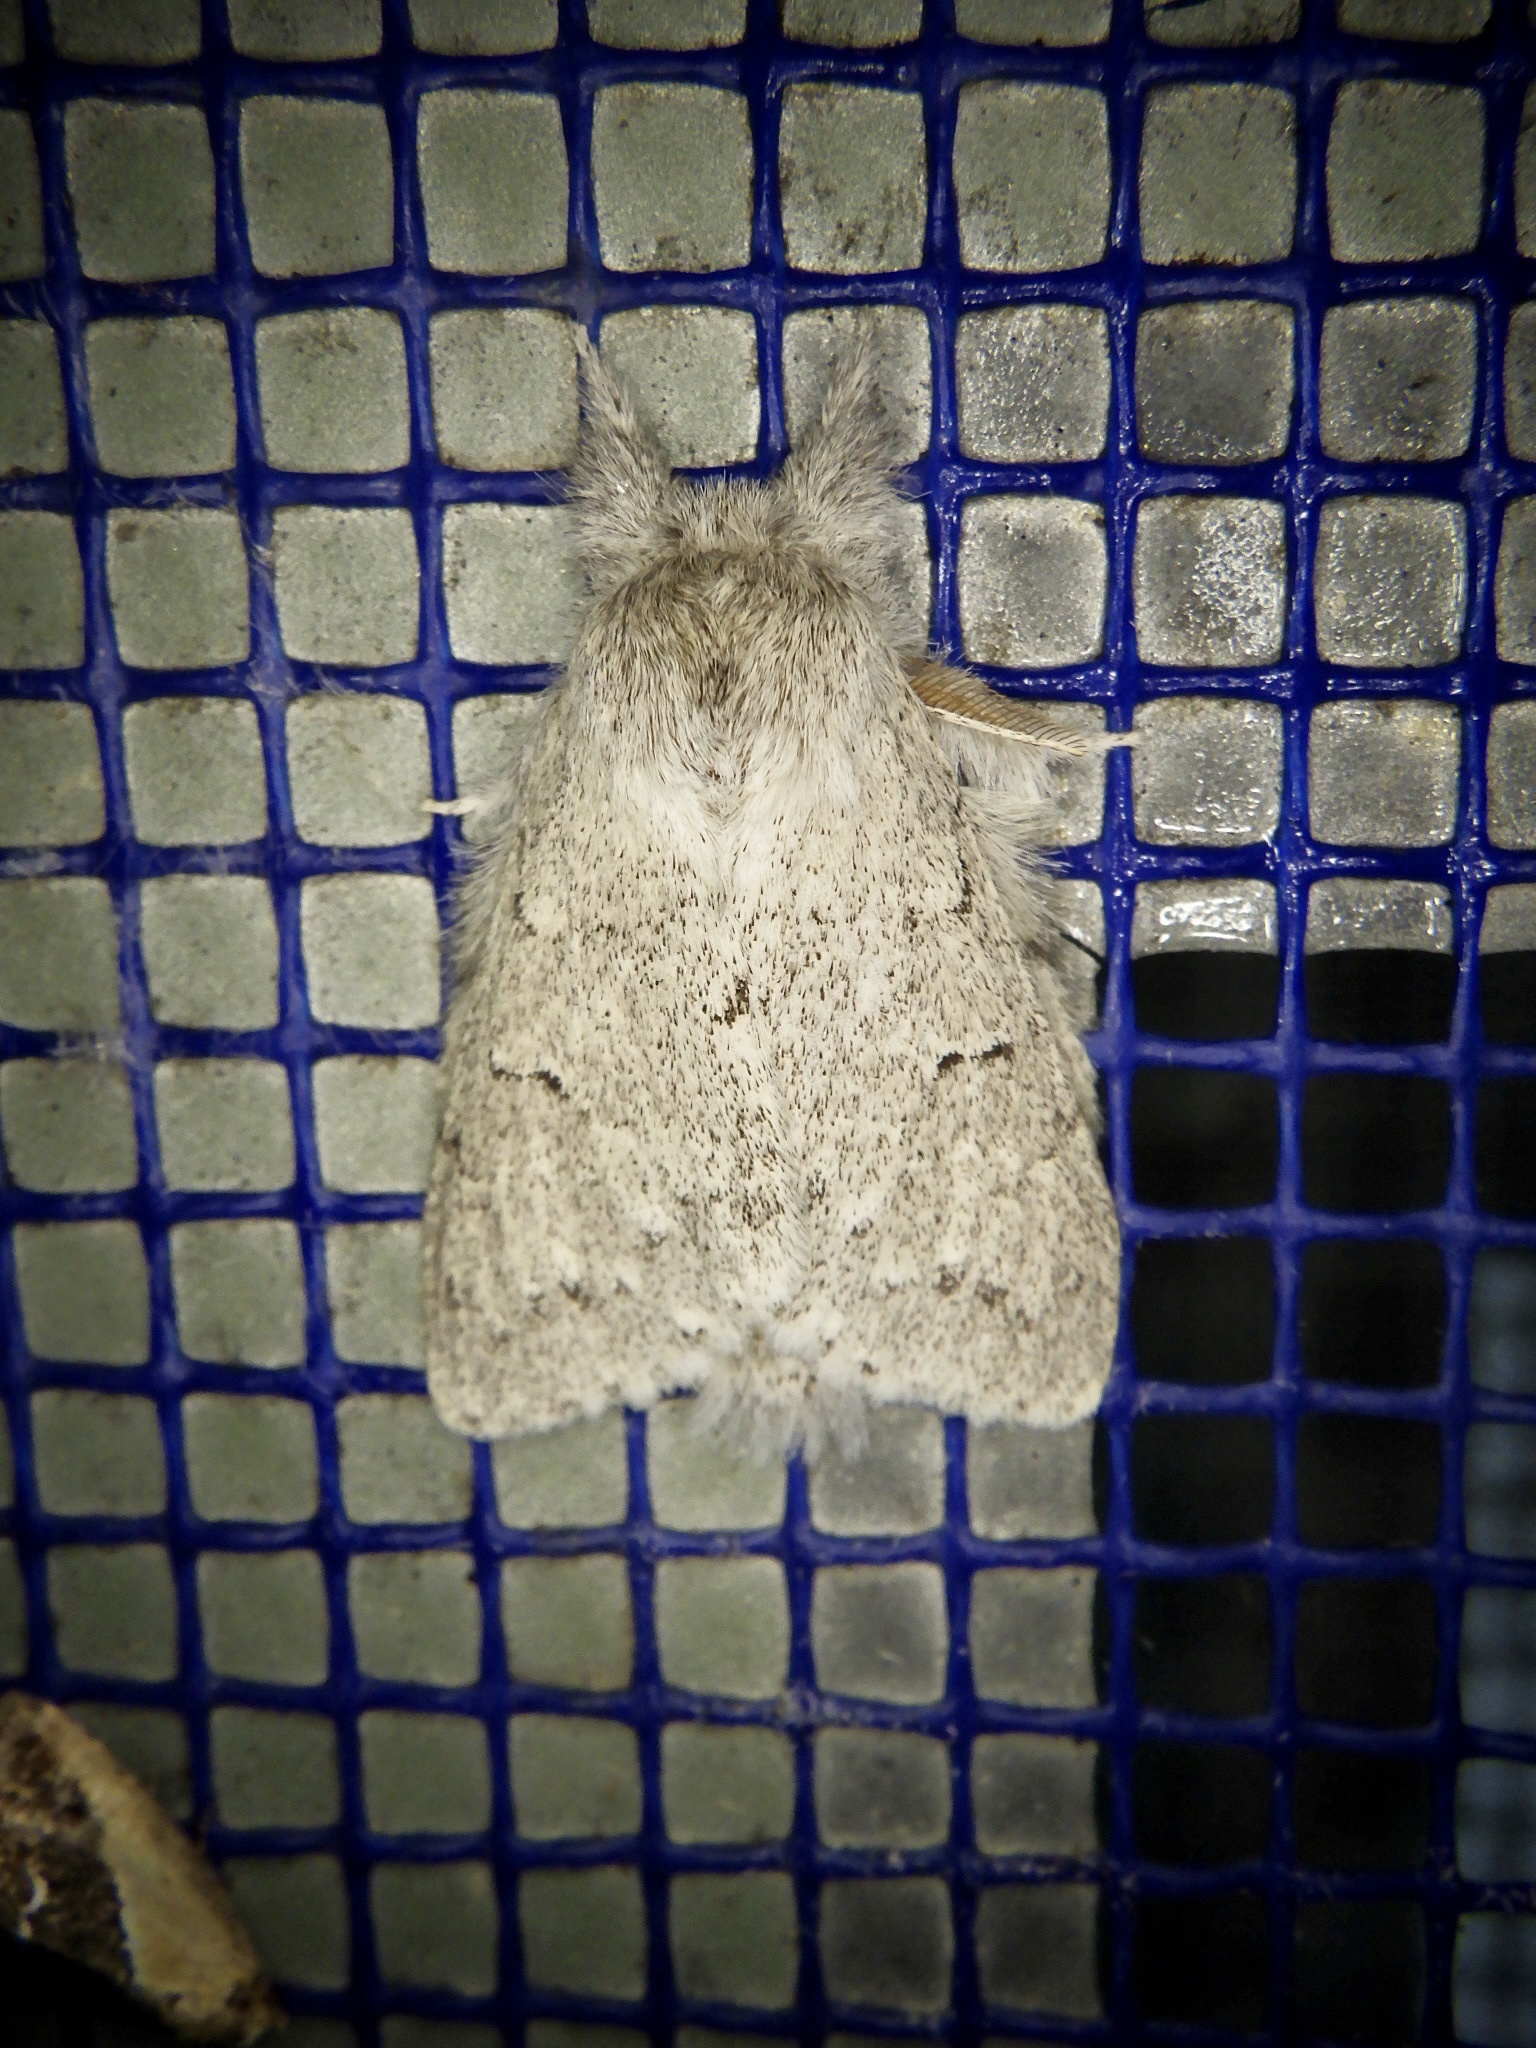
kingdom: Animalia
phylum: Arthropoda
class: Insecta
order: Lepidoptera
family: Notodontidae
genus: Cnethodonta
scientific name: Cnethodonta grisescens
